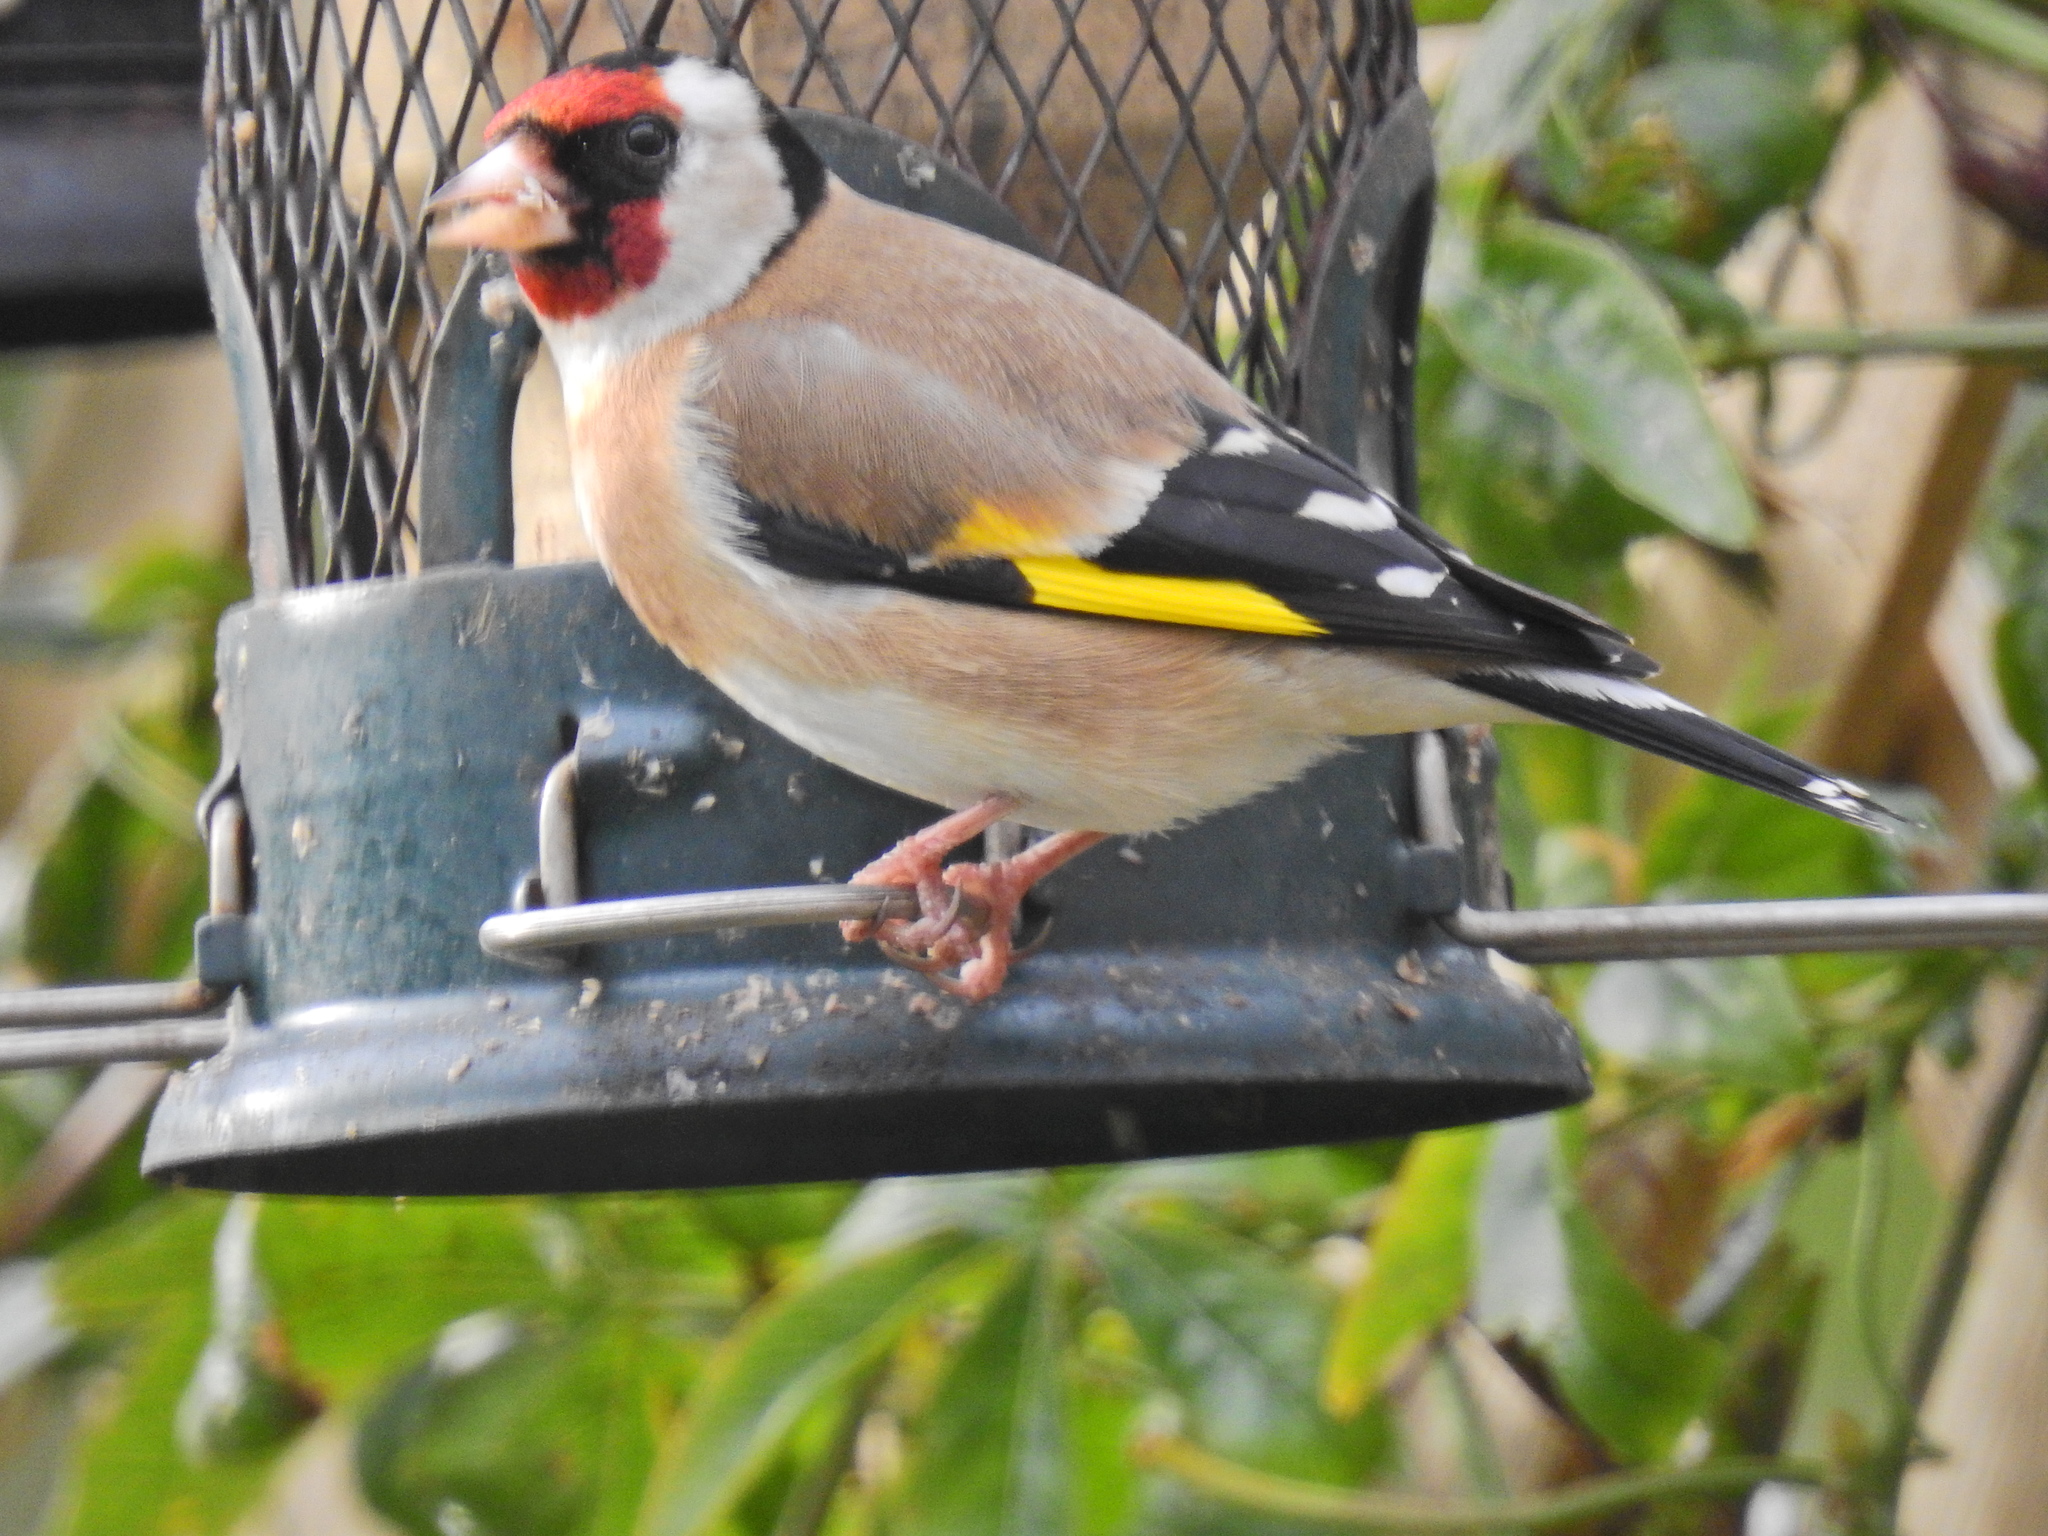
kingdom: Animalia
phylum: Chordata
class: Aves
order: Passeriformes
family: Fringillidae
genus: Carduelis
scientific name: Carduelis carduelis
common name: European goldfinch
